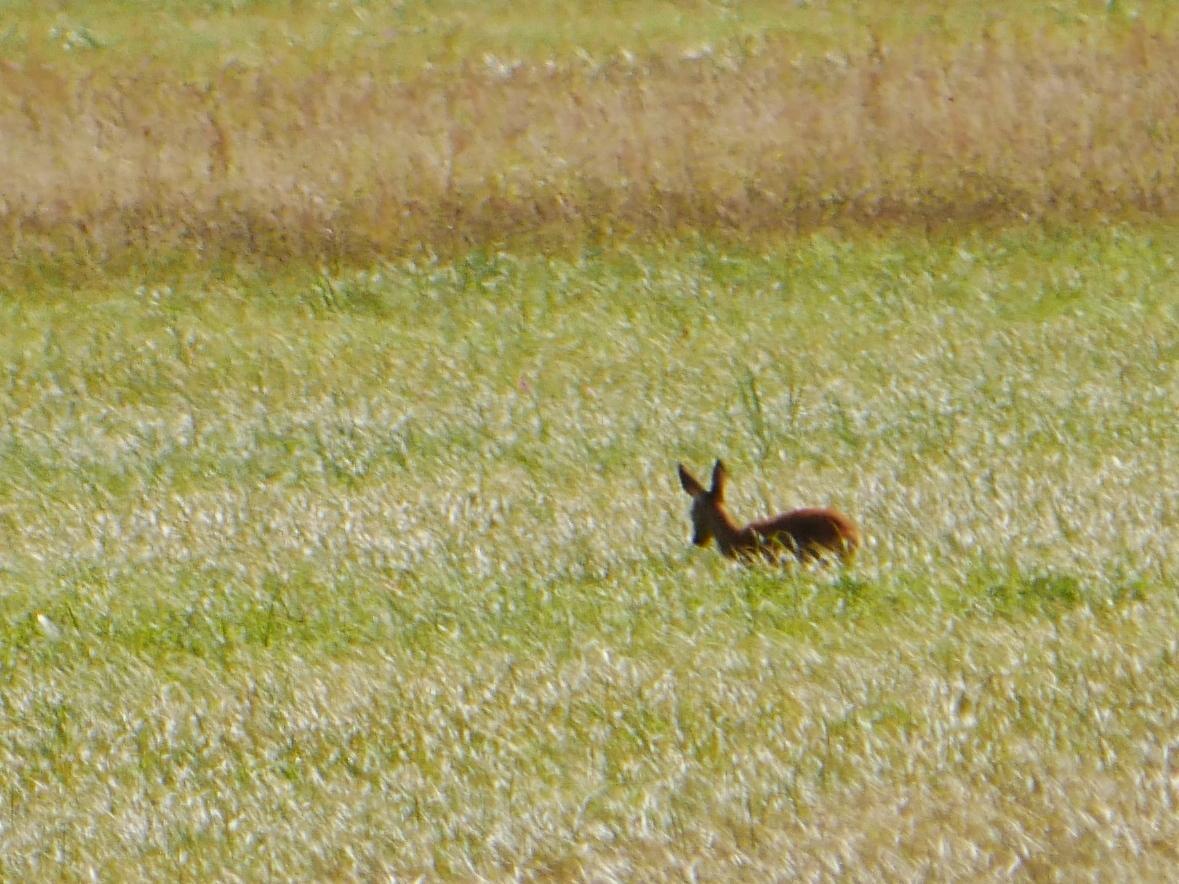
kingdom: Animalia
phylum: Chordata
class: Mammalia
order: Artiodactyla
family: Cervidae
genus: Capreolus
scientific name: Capreolus capreolus
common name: Western roe deer
